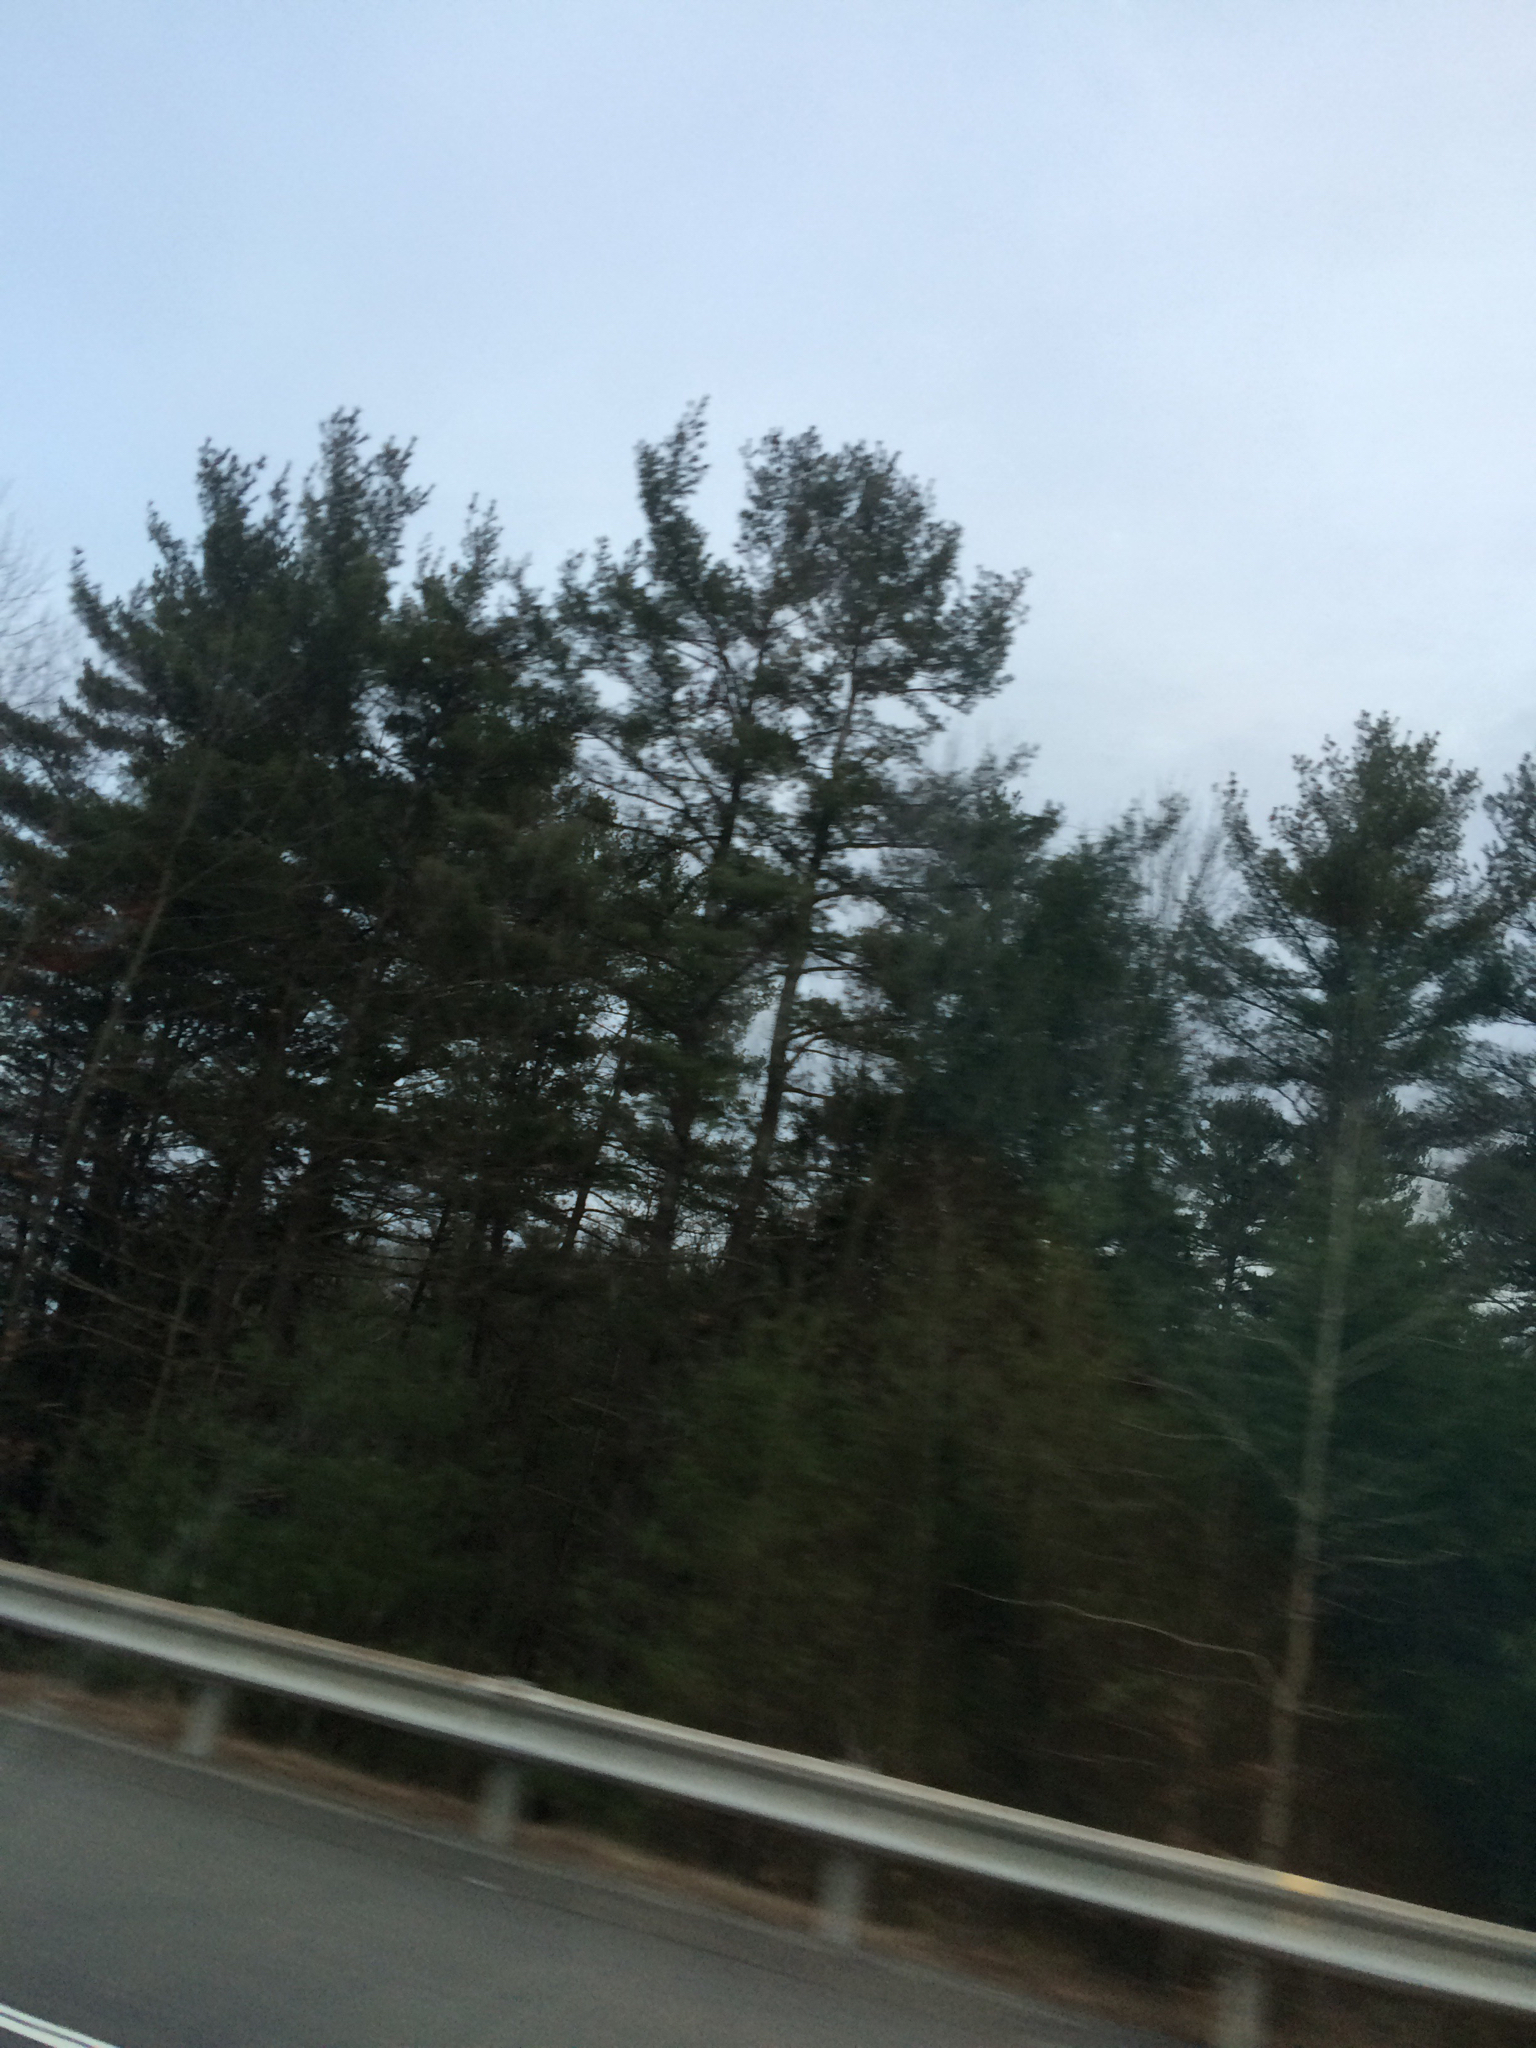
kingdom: Plantae
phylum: Tracheophyta
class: Pinopsida
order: Pinales
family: Pinaceae
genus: Pinus
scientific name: Pinus strobus
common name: Weymouth pine
